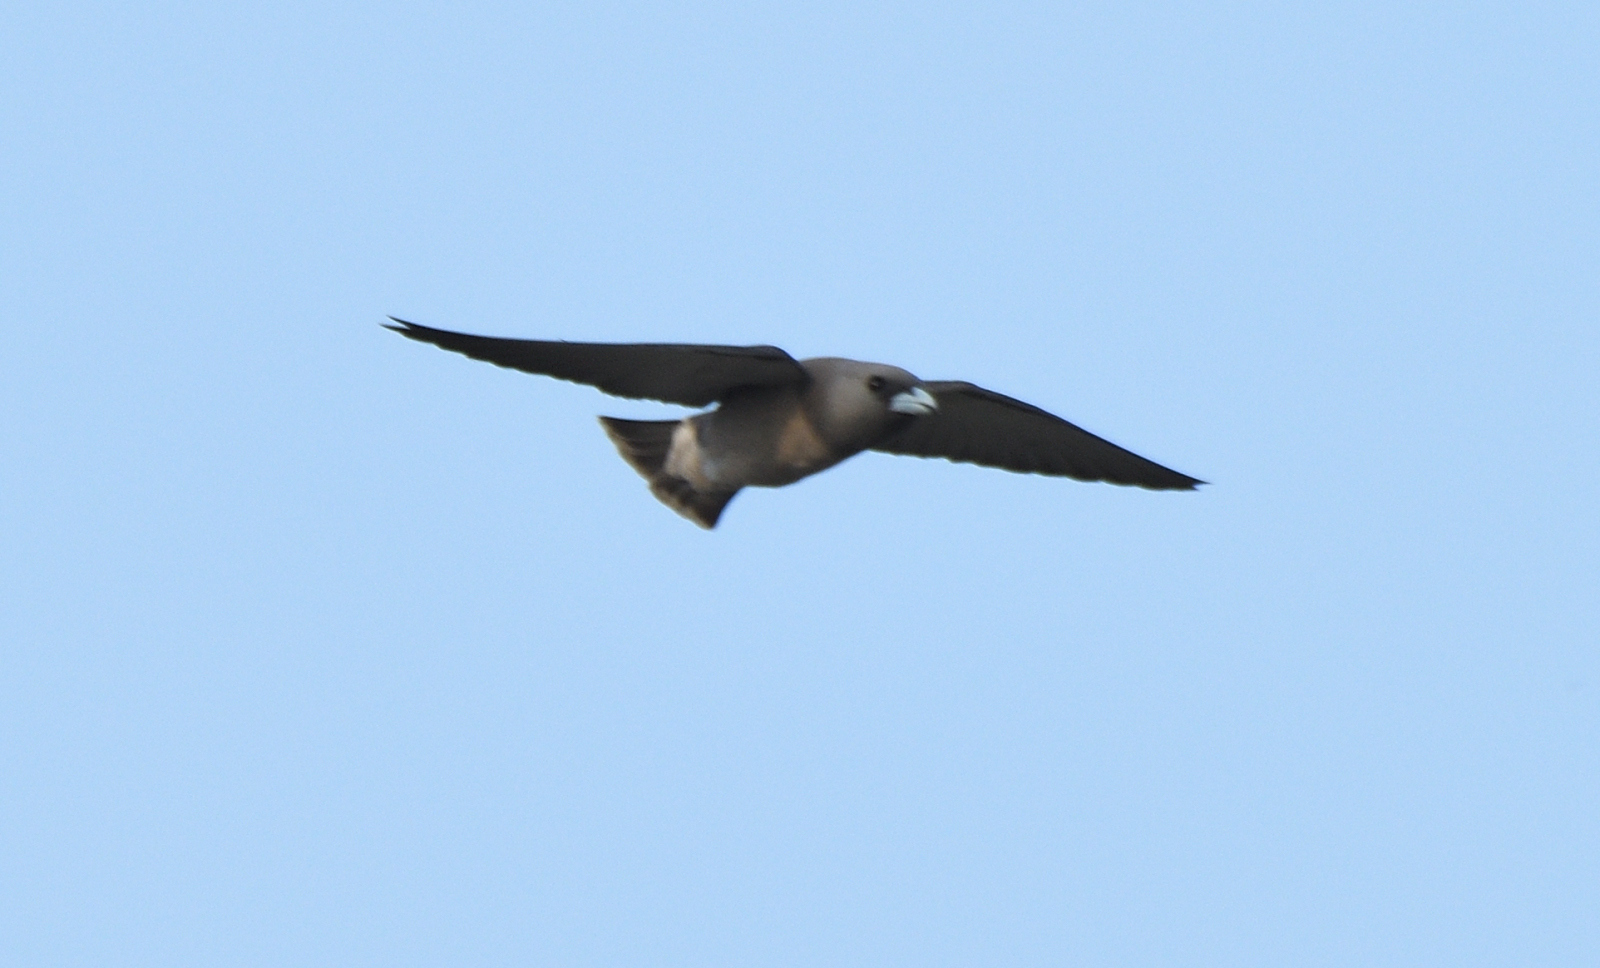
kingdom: Animalia
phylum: Chordata
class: Aves
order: Passeriformes
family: Artamidae
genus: Artamus
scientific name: Artamus fuscus
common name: Ashy woodswallow
